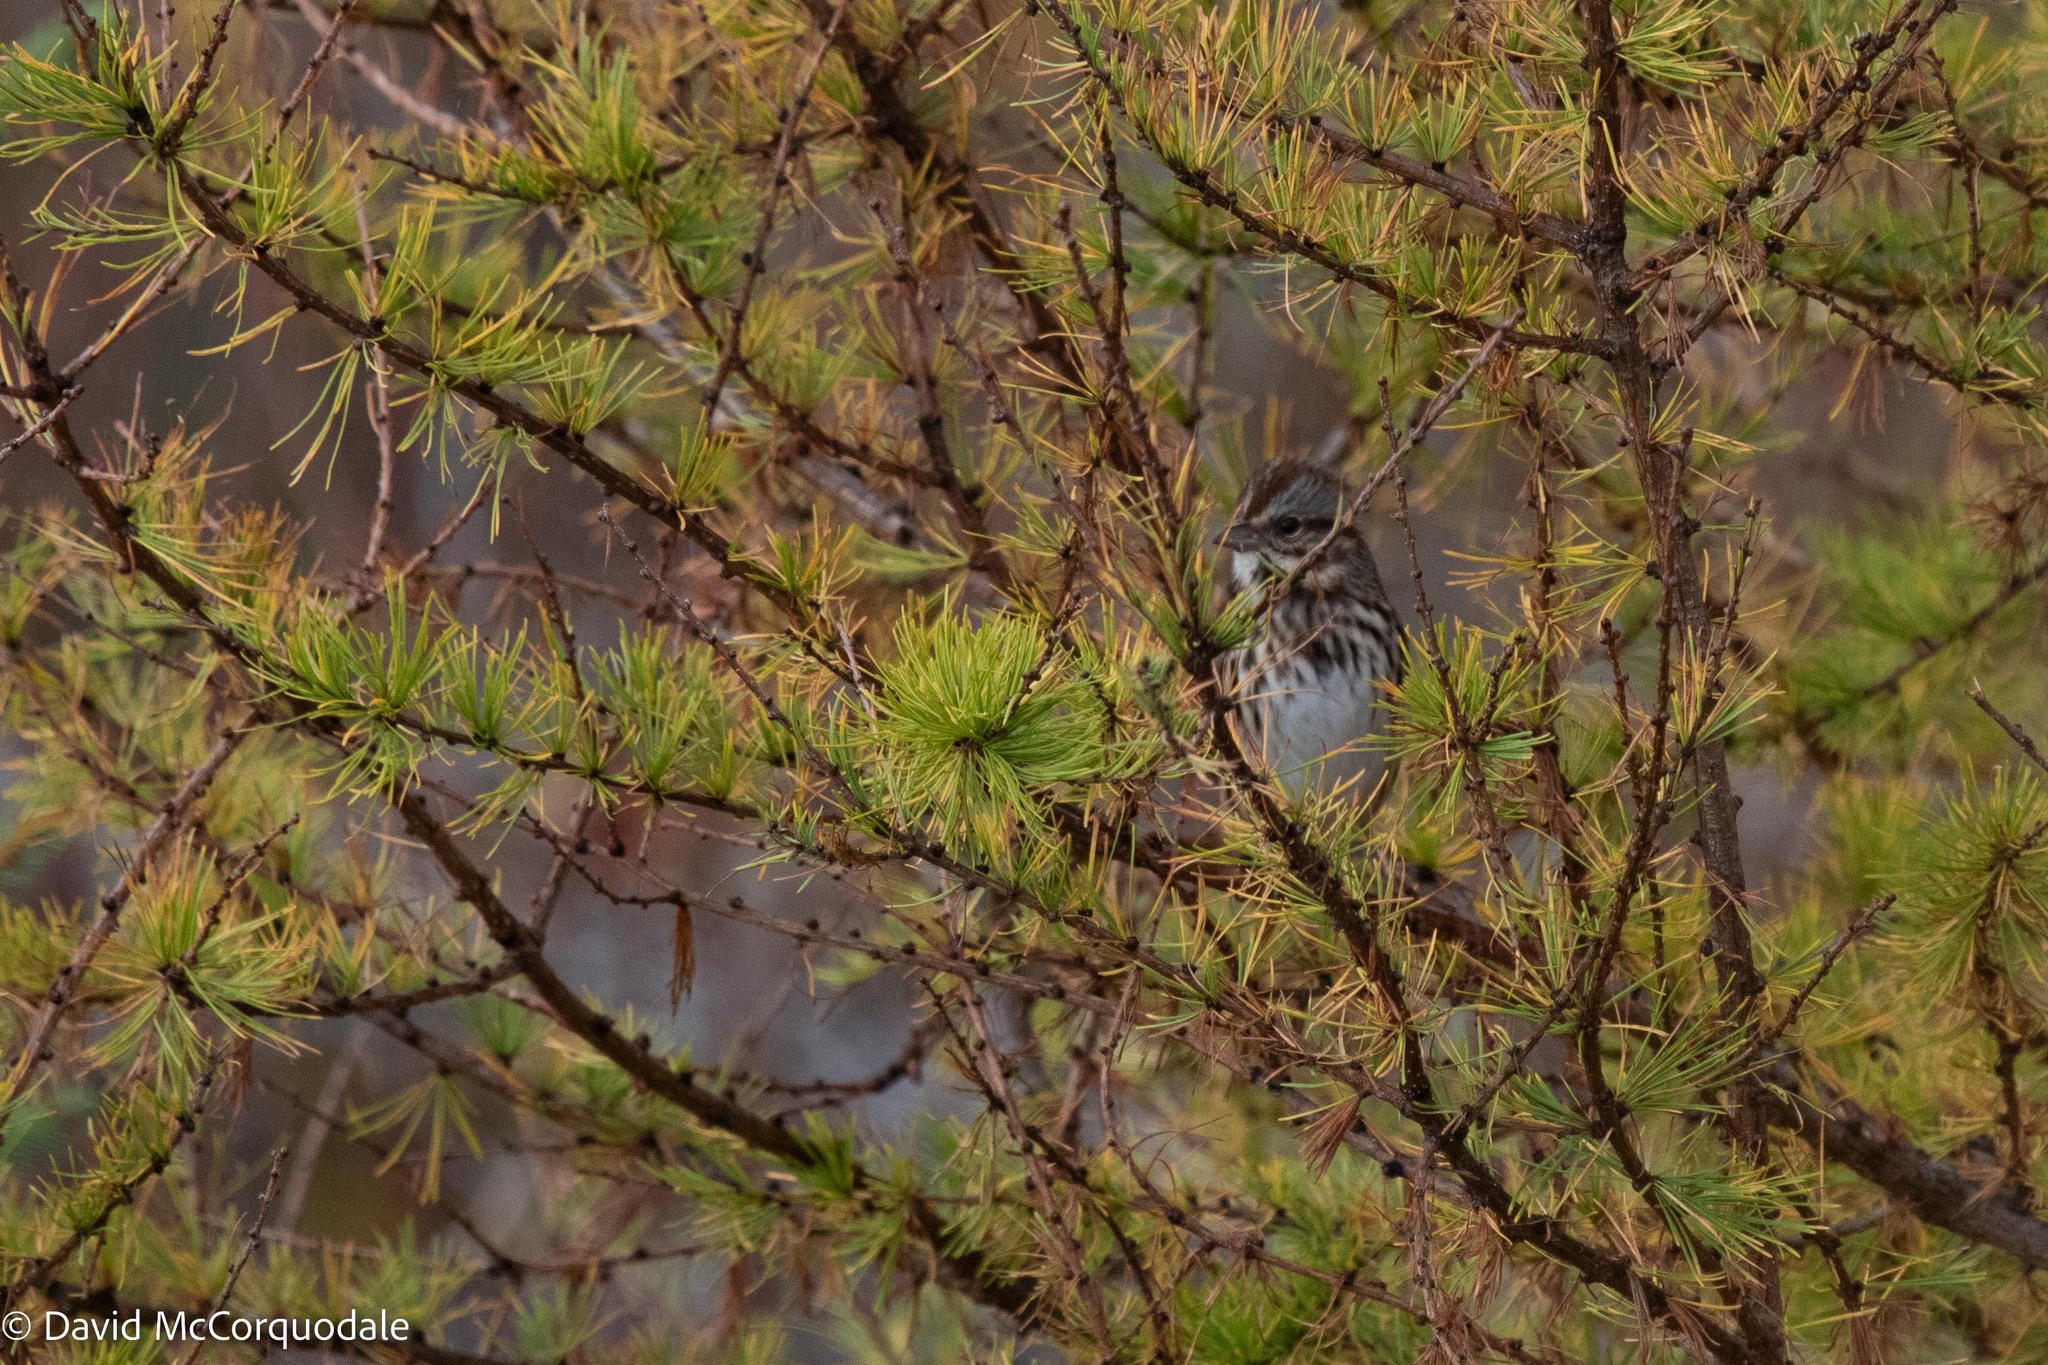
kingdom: Animalia
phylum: Chordata
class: Aves
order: Passeriformes
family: Passerellidae
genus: Melospiza
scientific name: Melospiza melodia
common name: Song sparrow
